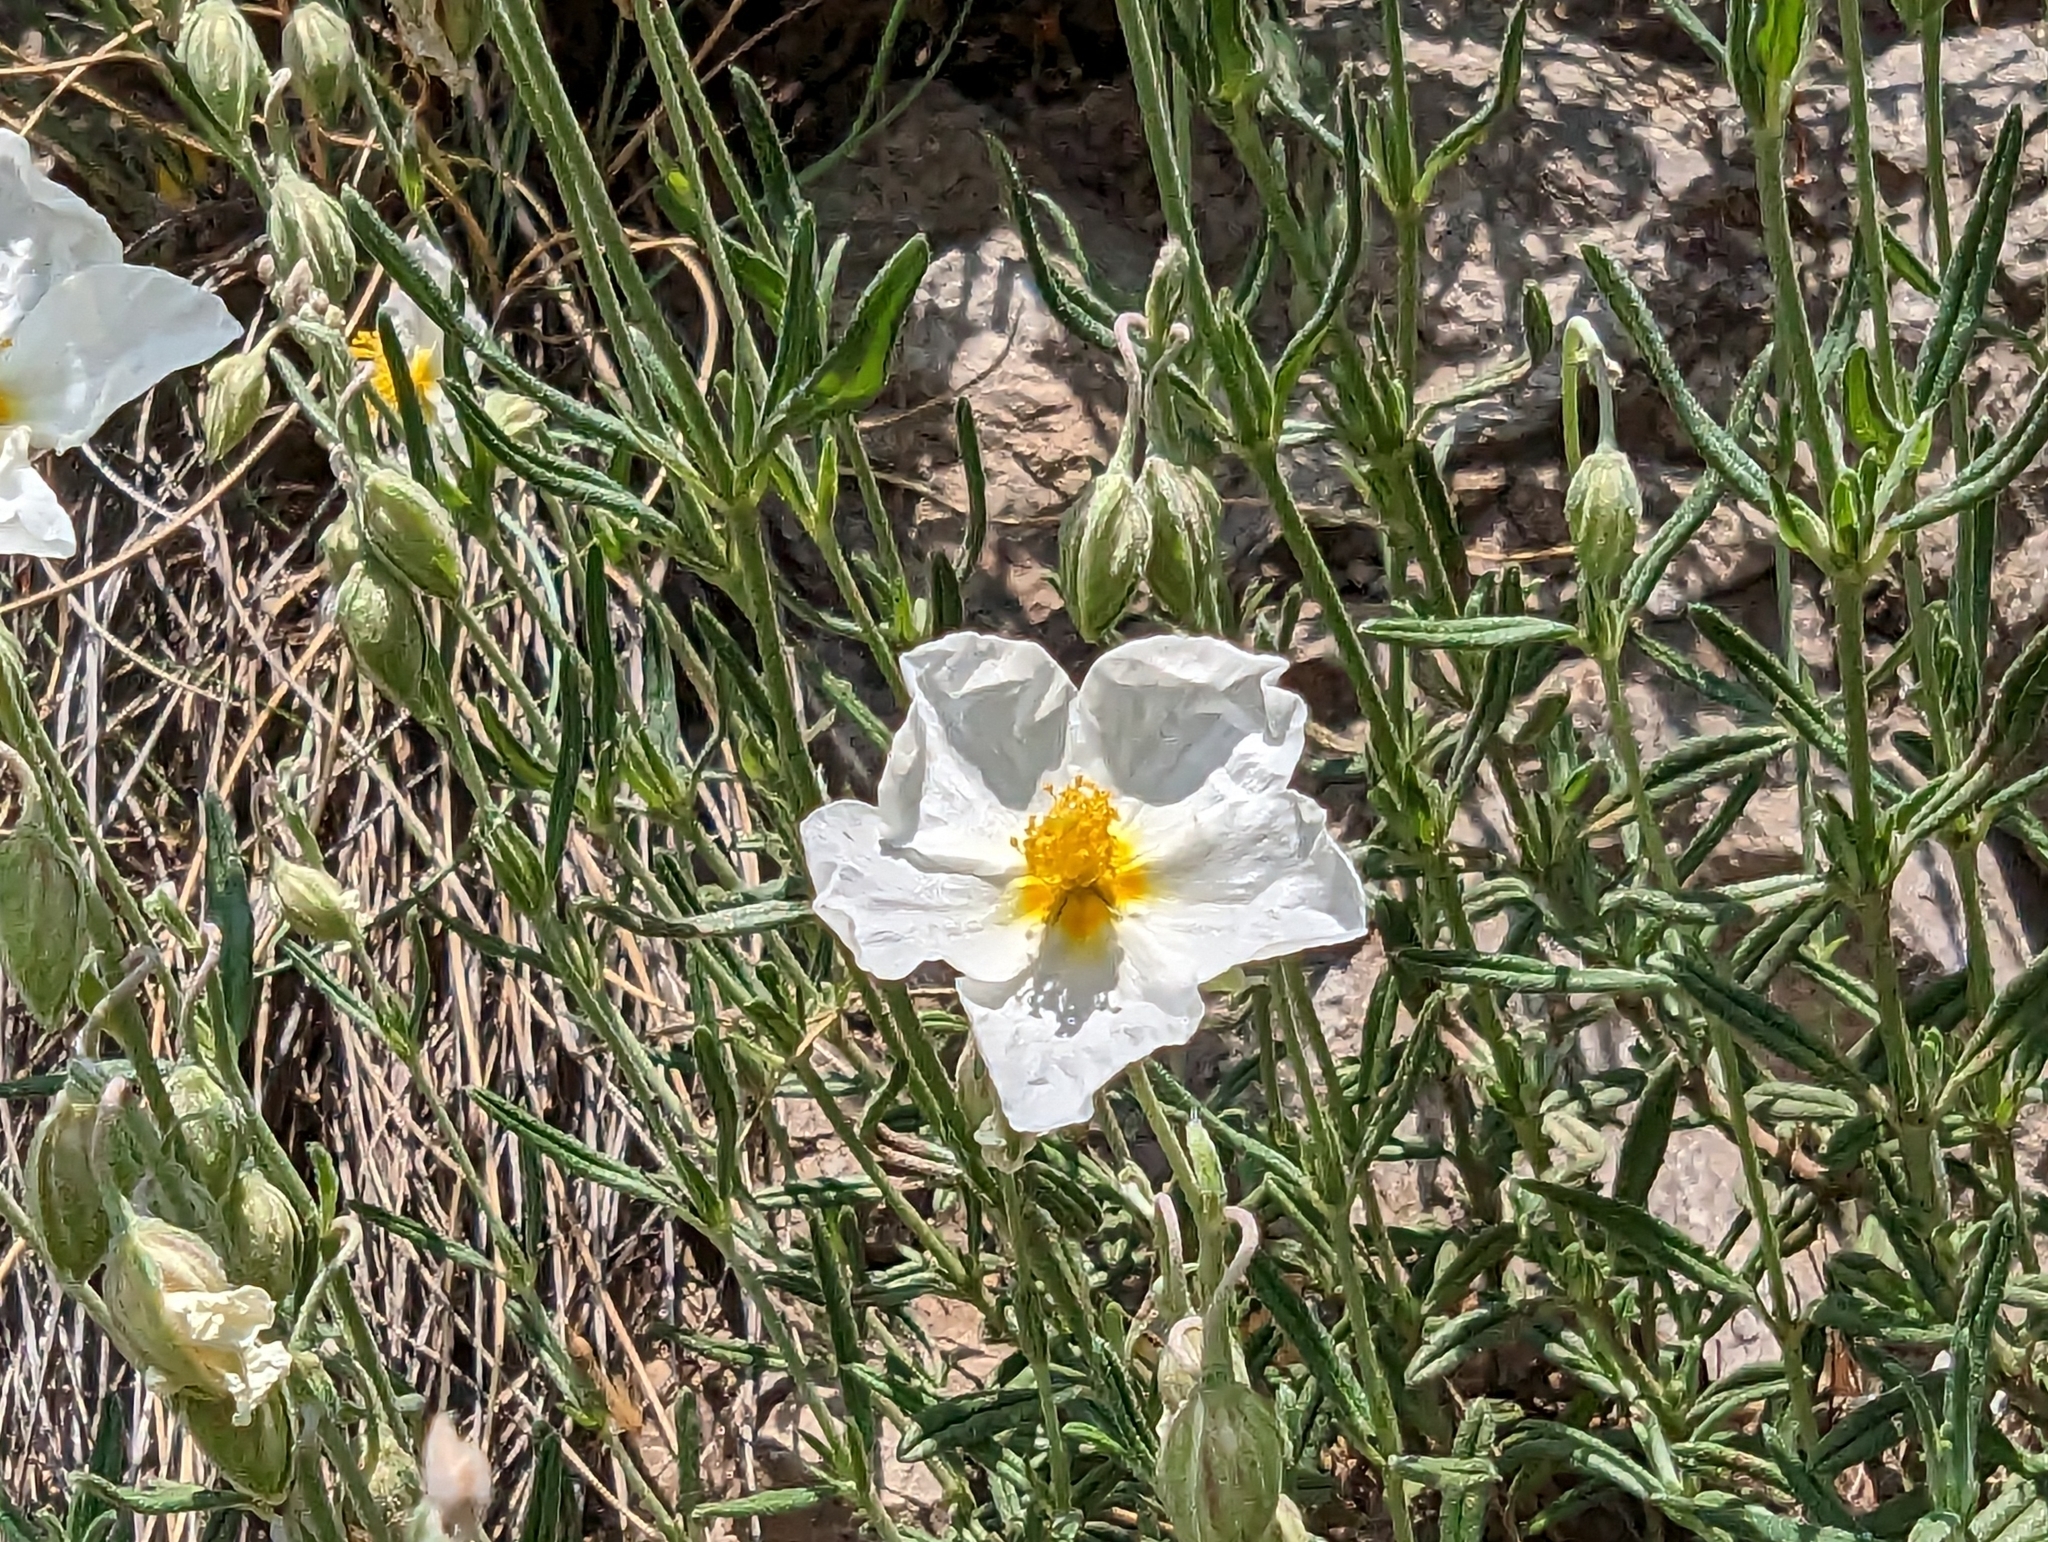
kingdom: Plantae
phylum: Tracheophyta
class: Magnoliopsida
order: Malvales
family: Cistaceae
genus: Helianthemum
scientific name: Helianthemum apenninum
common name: White rock-rose
